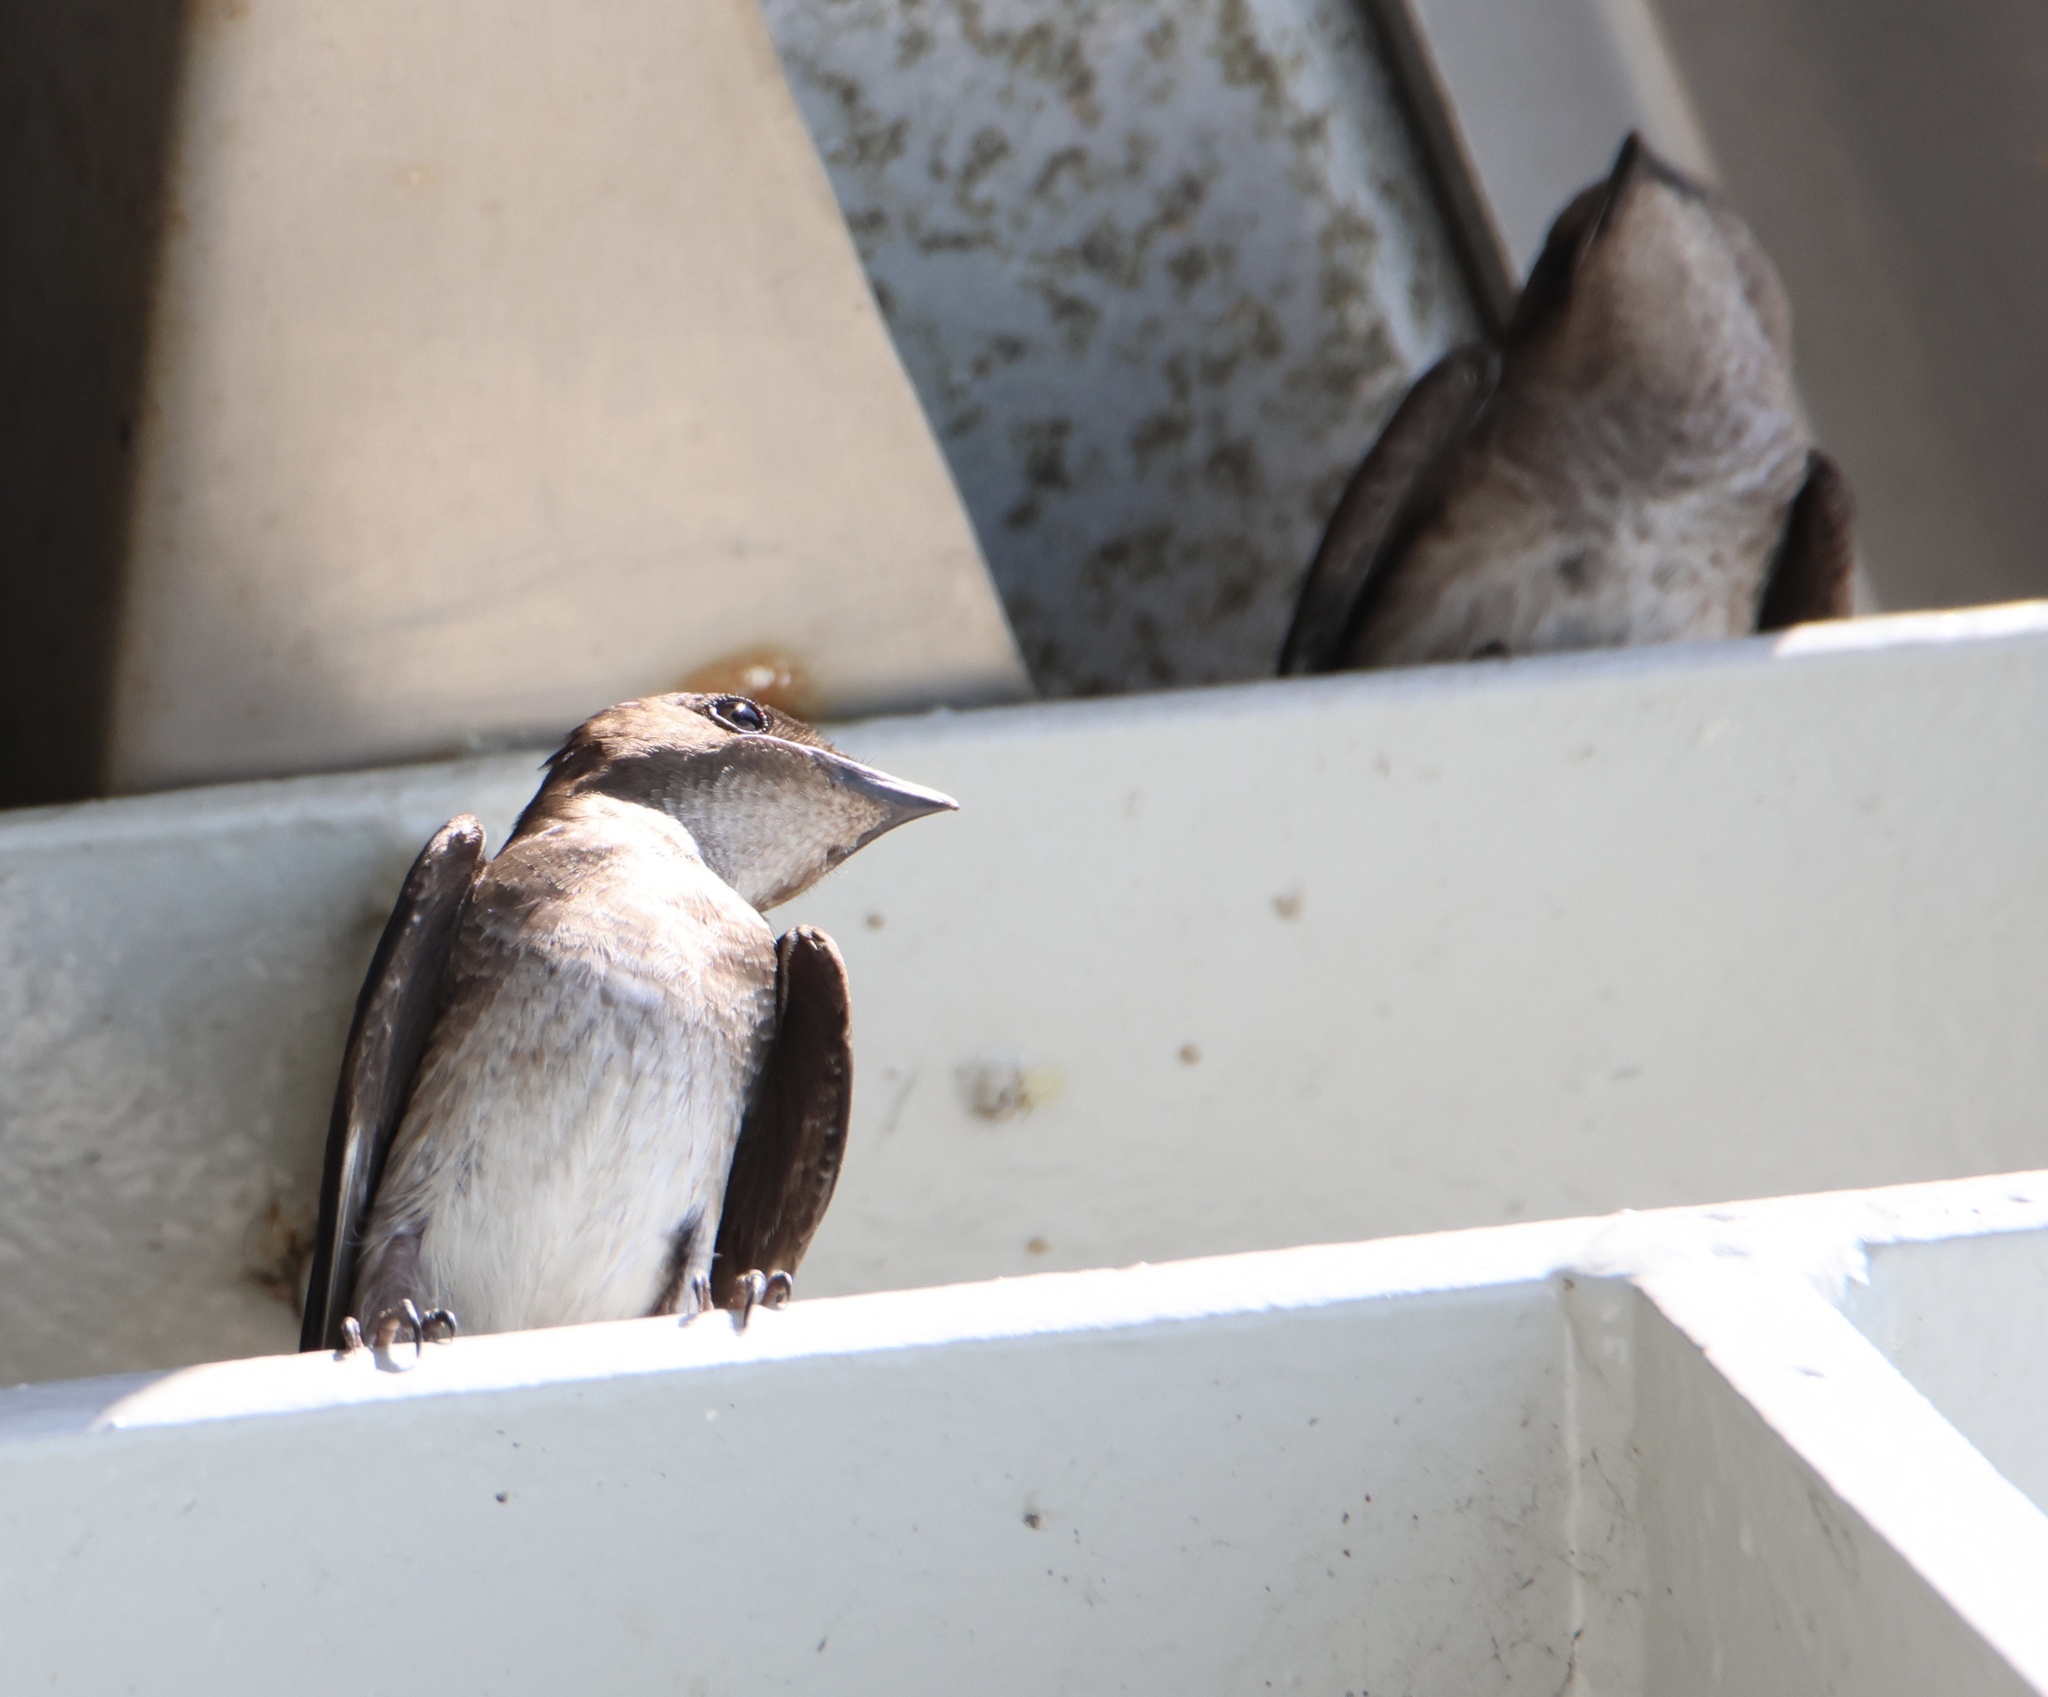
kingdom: Animalia
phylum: Chordata
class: Aves
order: Passeriformes
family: Hirundinidae
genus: Progne
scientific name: Progne chalybea
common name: Grey-breasted martin
